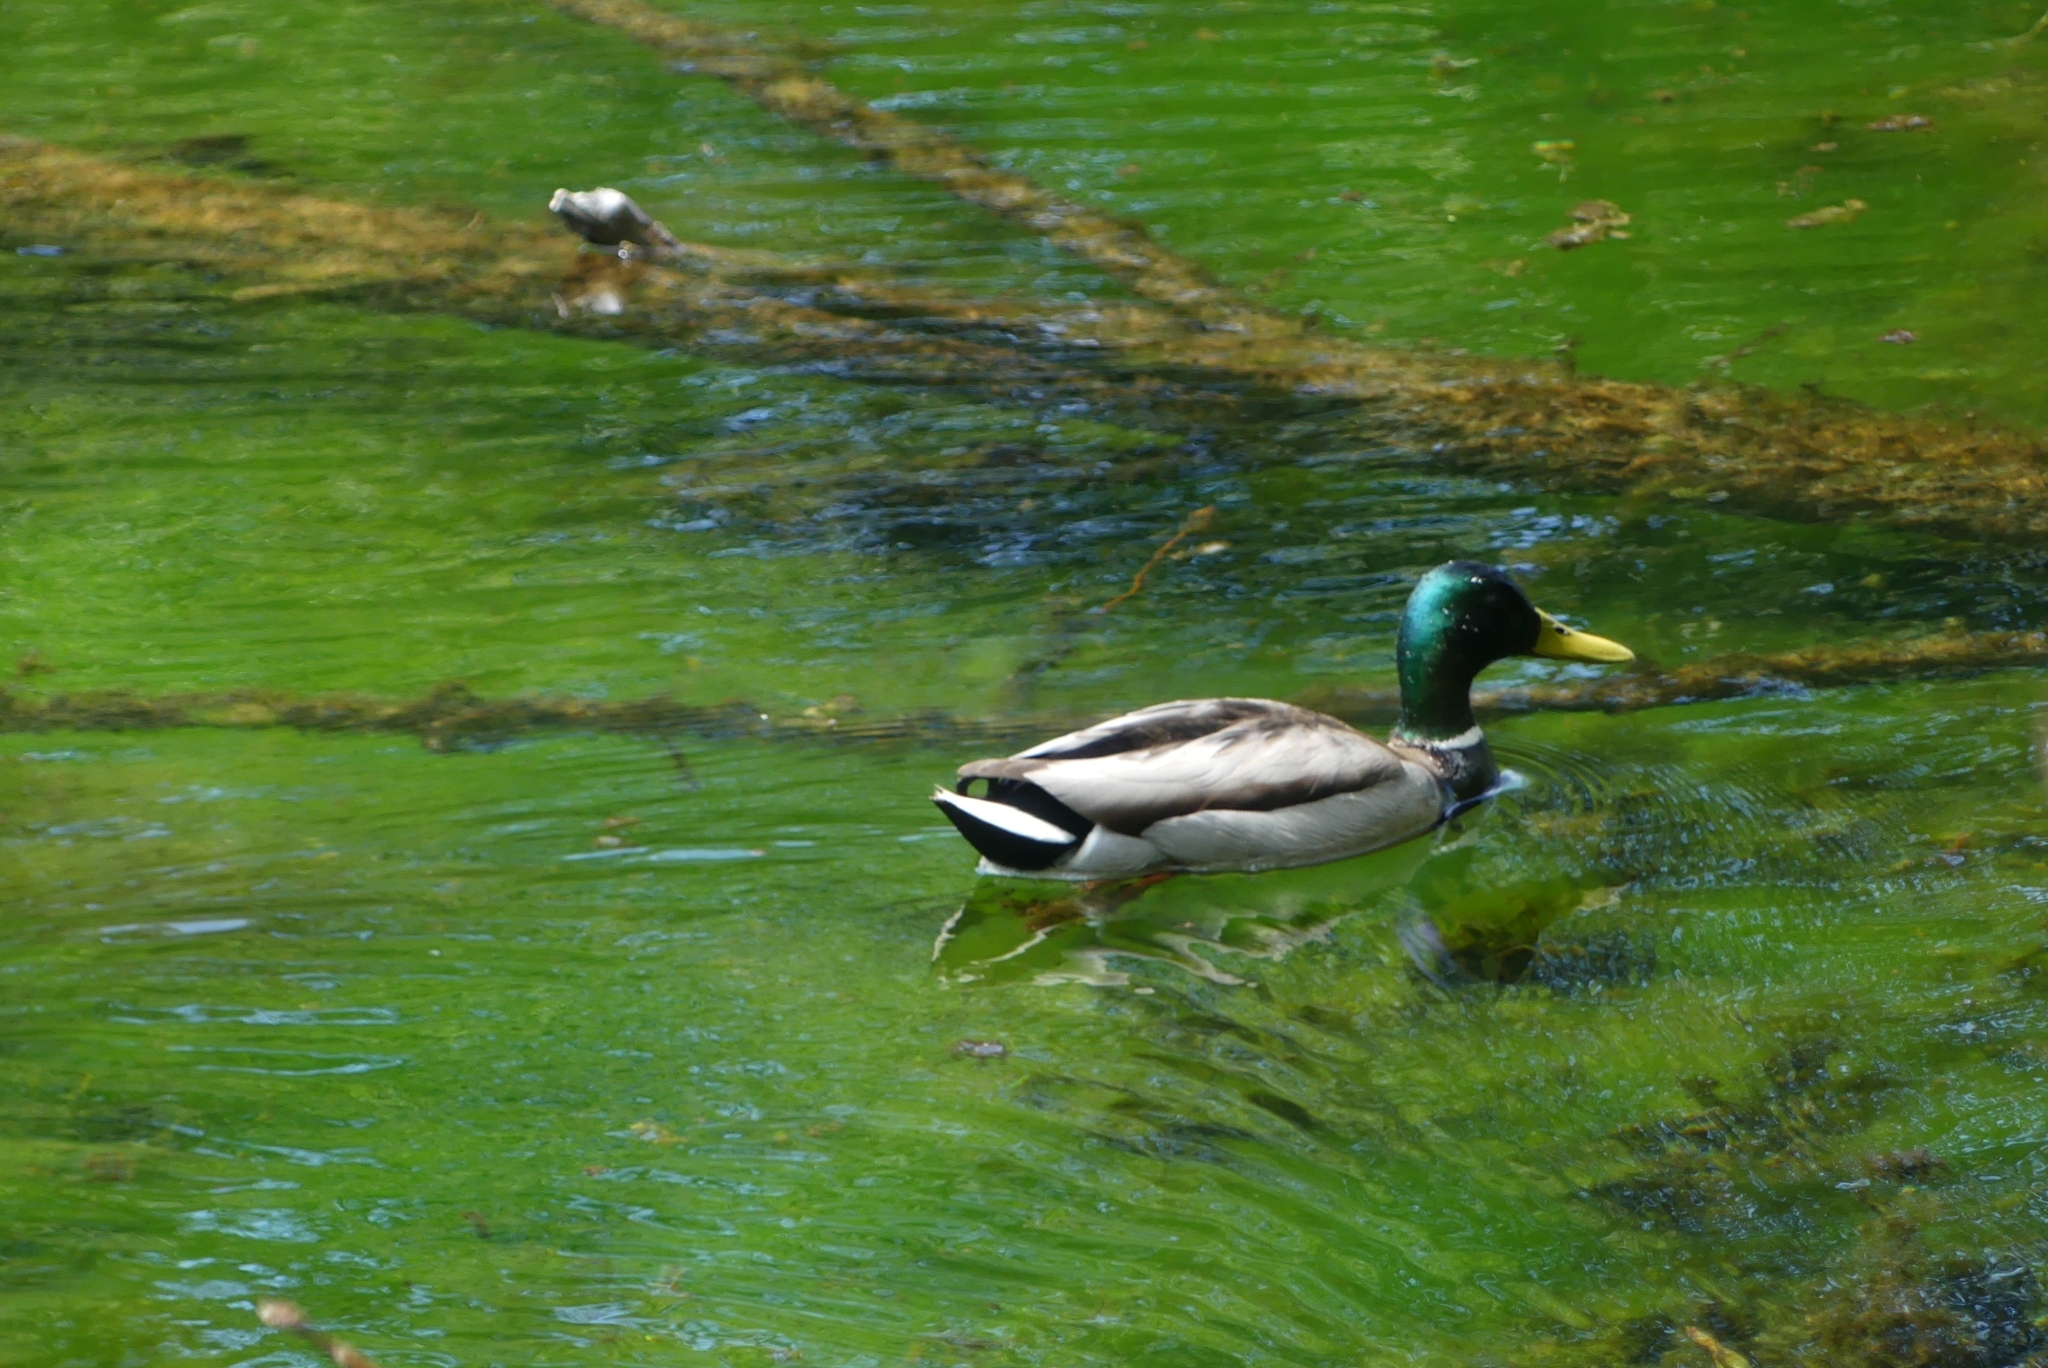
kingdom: Animalia
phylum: Chordata
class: Aves
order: Anseriformes
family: Anatidae
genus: Anas
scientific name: Anas platyrhynchos
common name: Mallard
